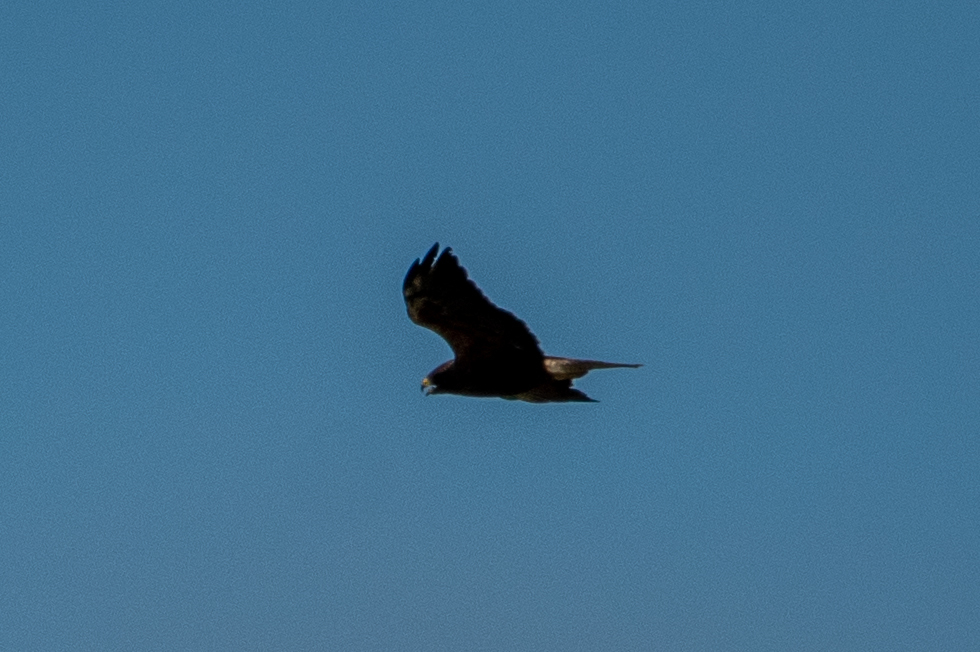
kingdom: Animalia
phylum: Chordata
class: Aves
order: Accipitriformes
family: Accipitridae
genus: Buteo
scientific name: Buteo swainsoni
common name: Swainson's hawk
